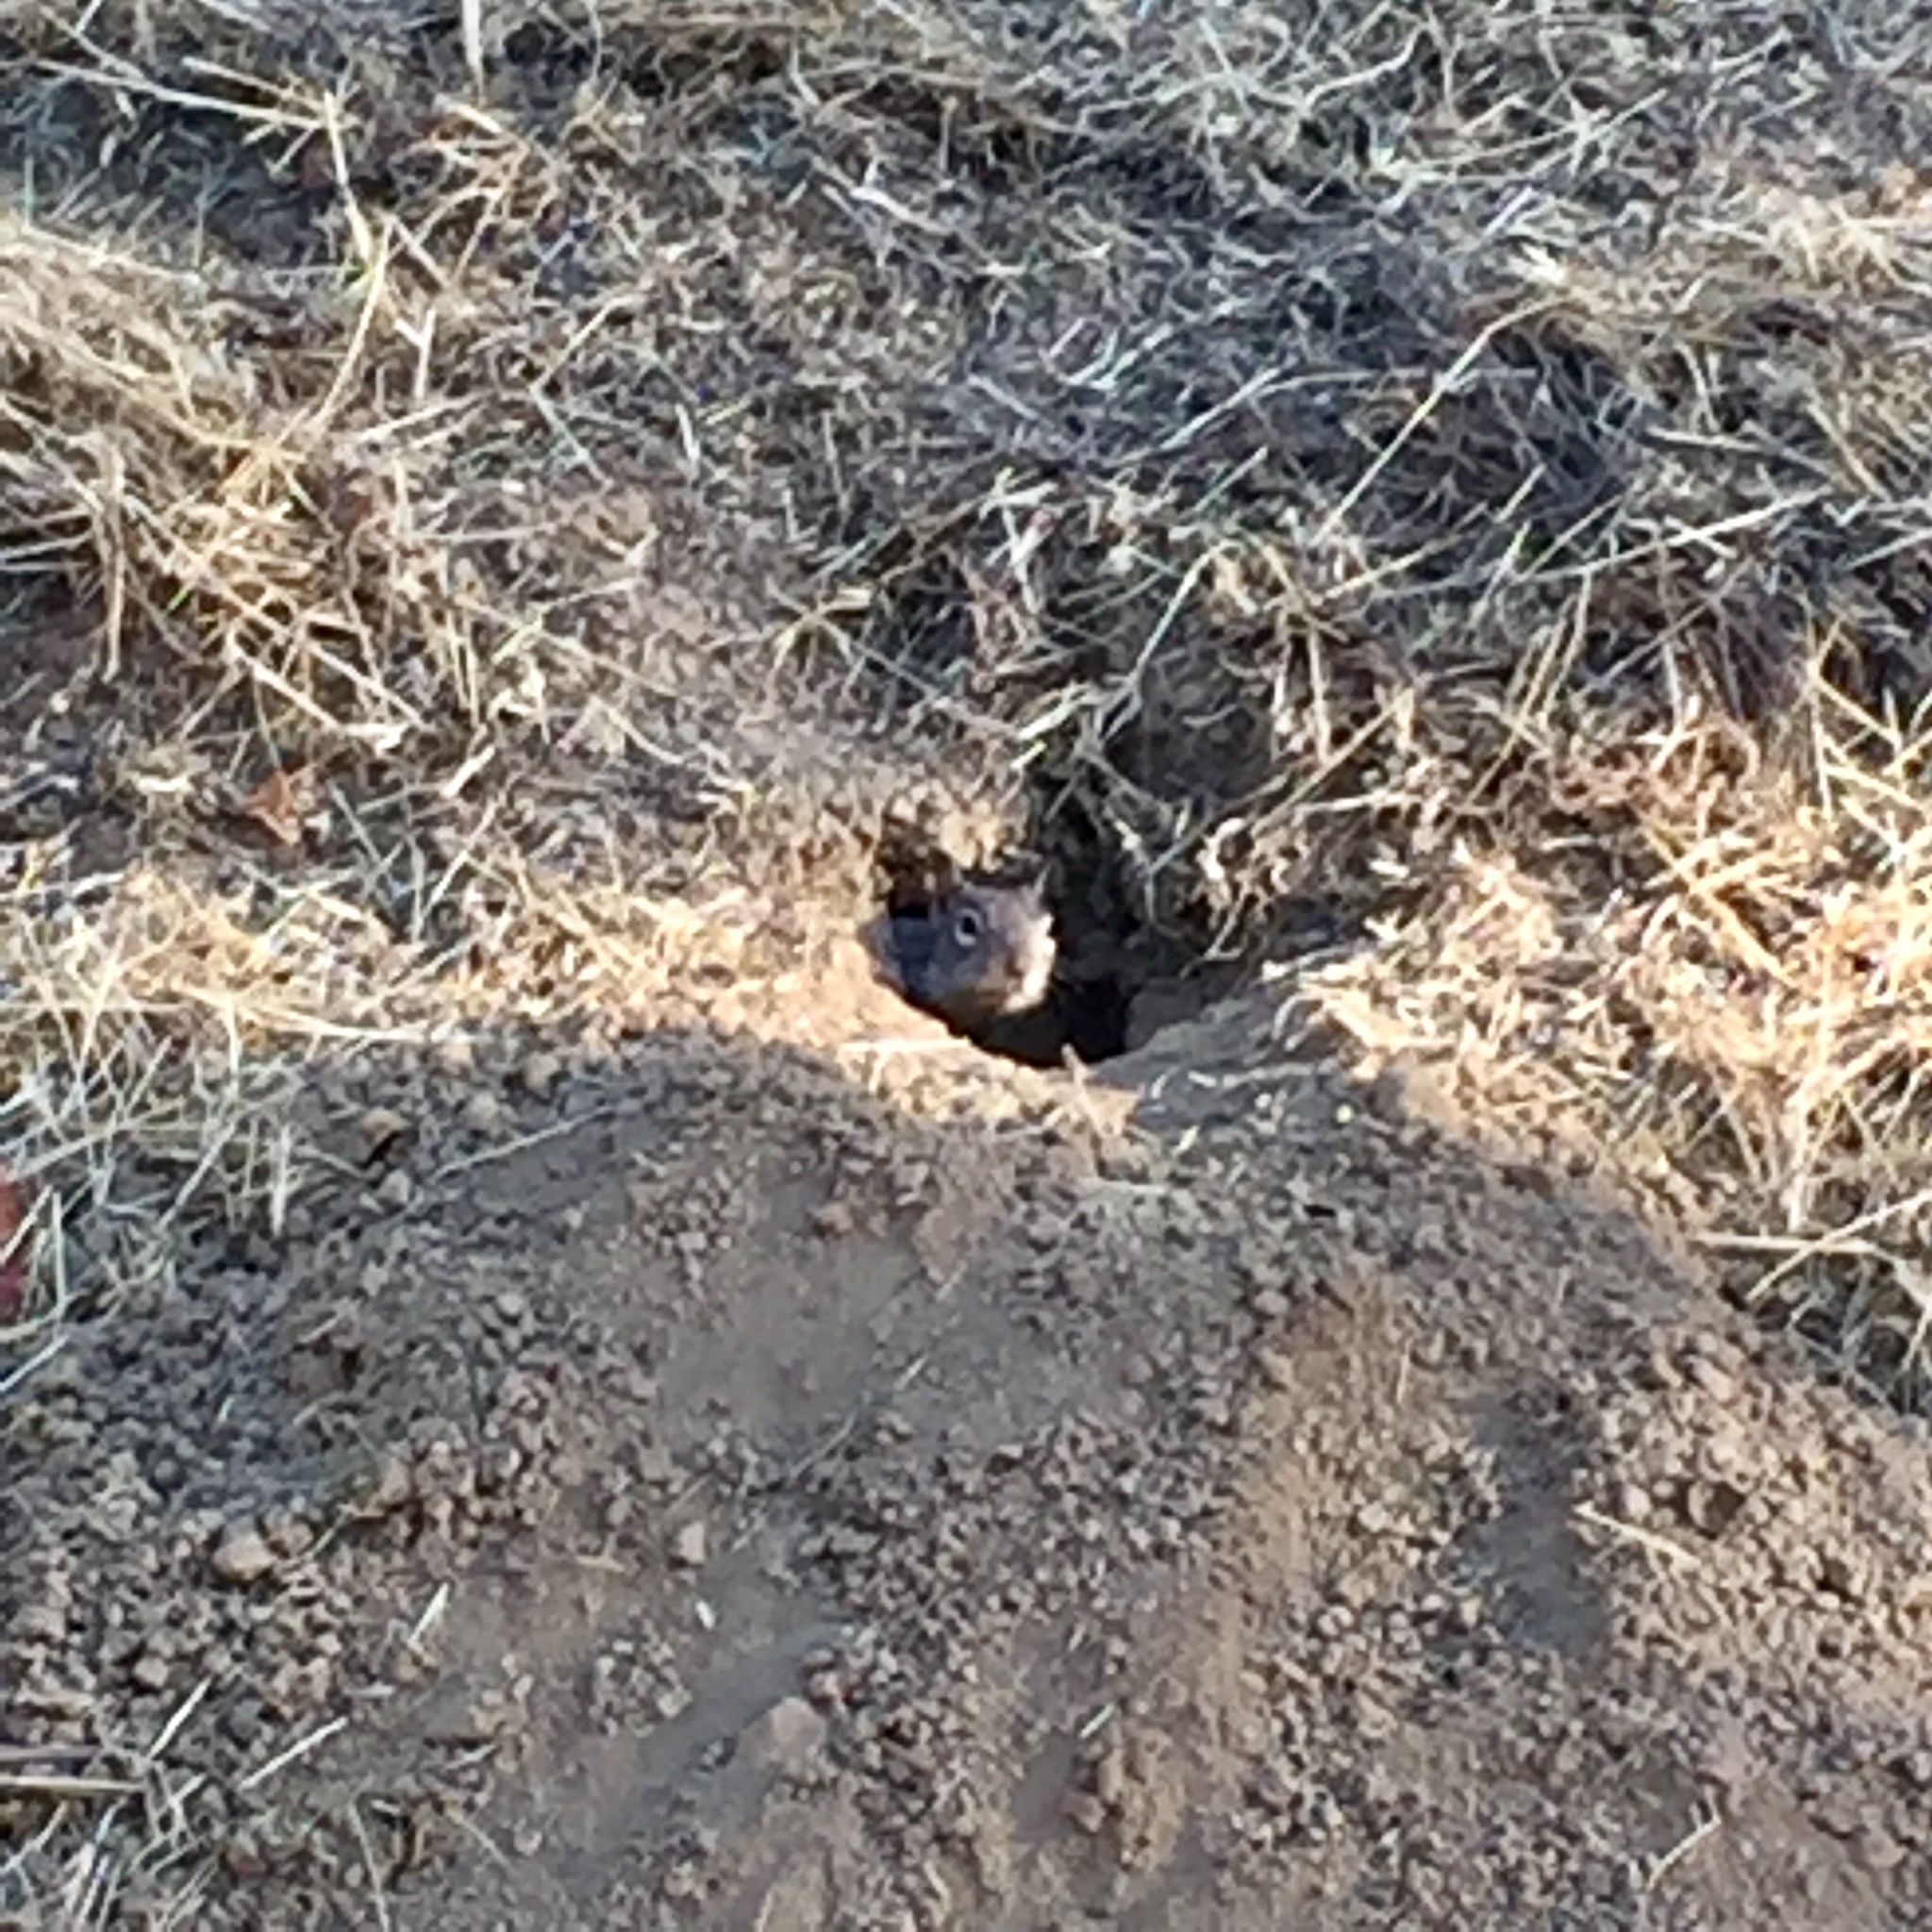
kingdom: Animalia
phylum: Chordata
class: Mammalia
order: Rodentia
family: Sciuridae
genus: Otospermophilus
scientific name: Otospermophilus beecheyi
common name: California ground squirrel
